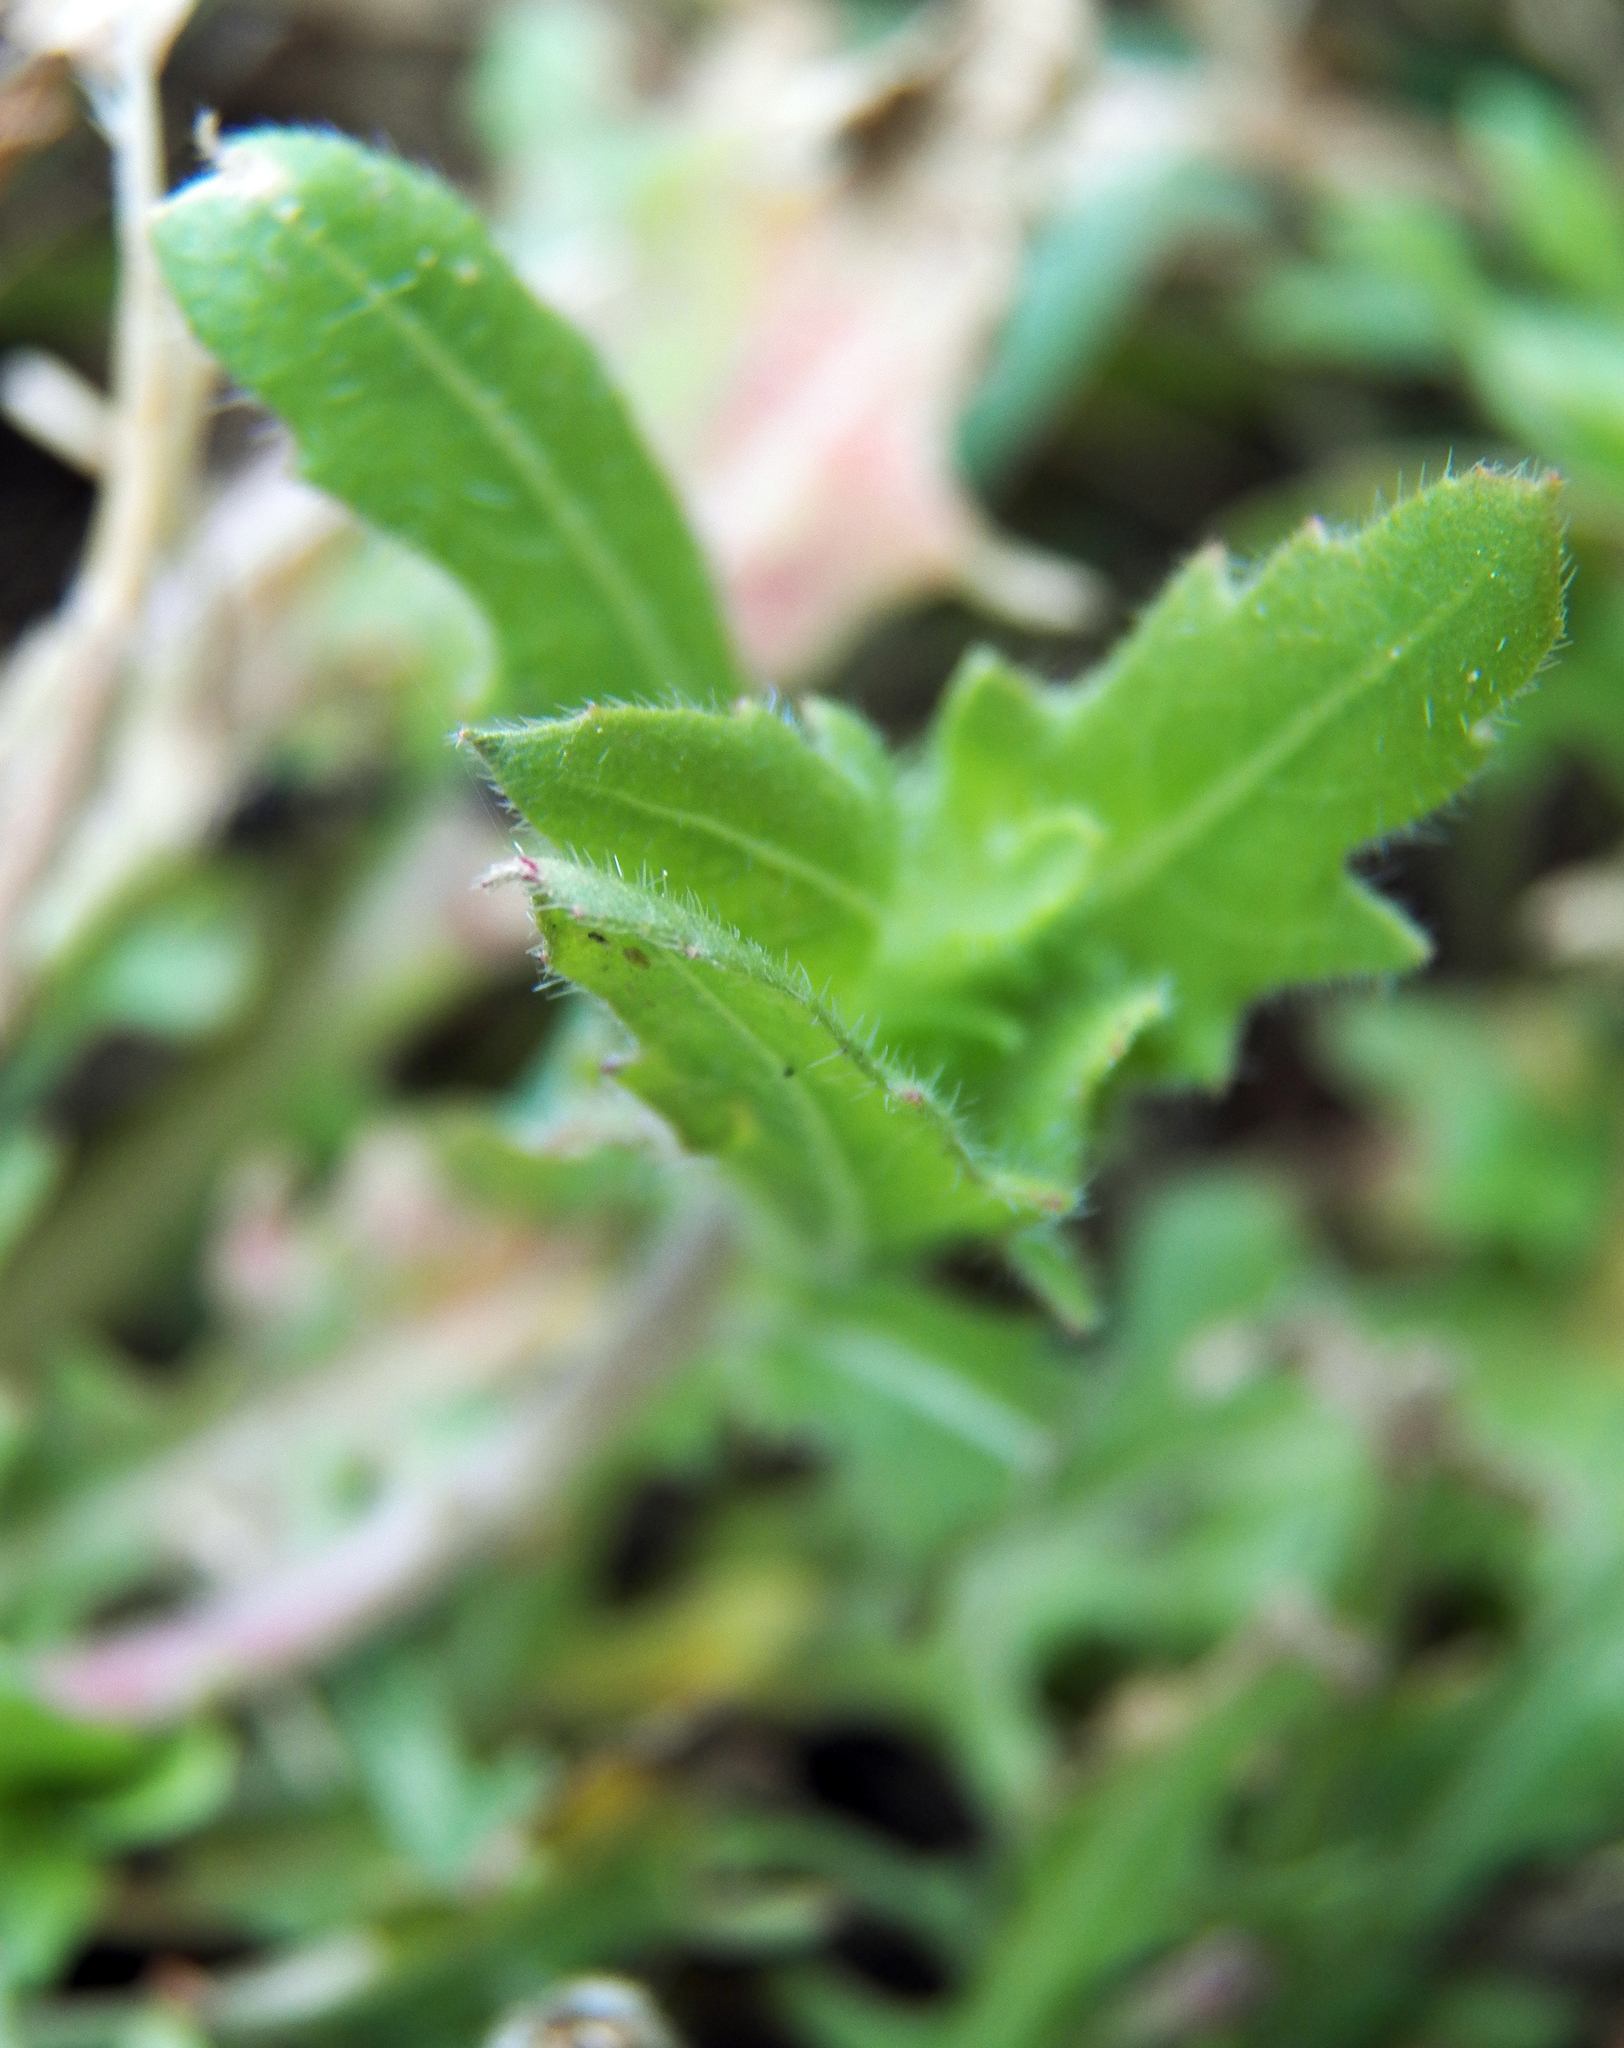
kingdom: Plantae
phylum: Tracheophyta
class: Magnoliopsida
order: Myrtales
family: Onagraceae
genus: Oenothera
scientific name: Oenothera laciniata
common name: Cut-leaved evening-primrose
